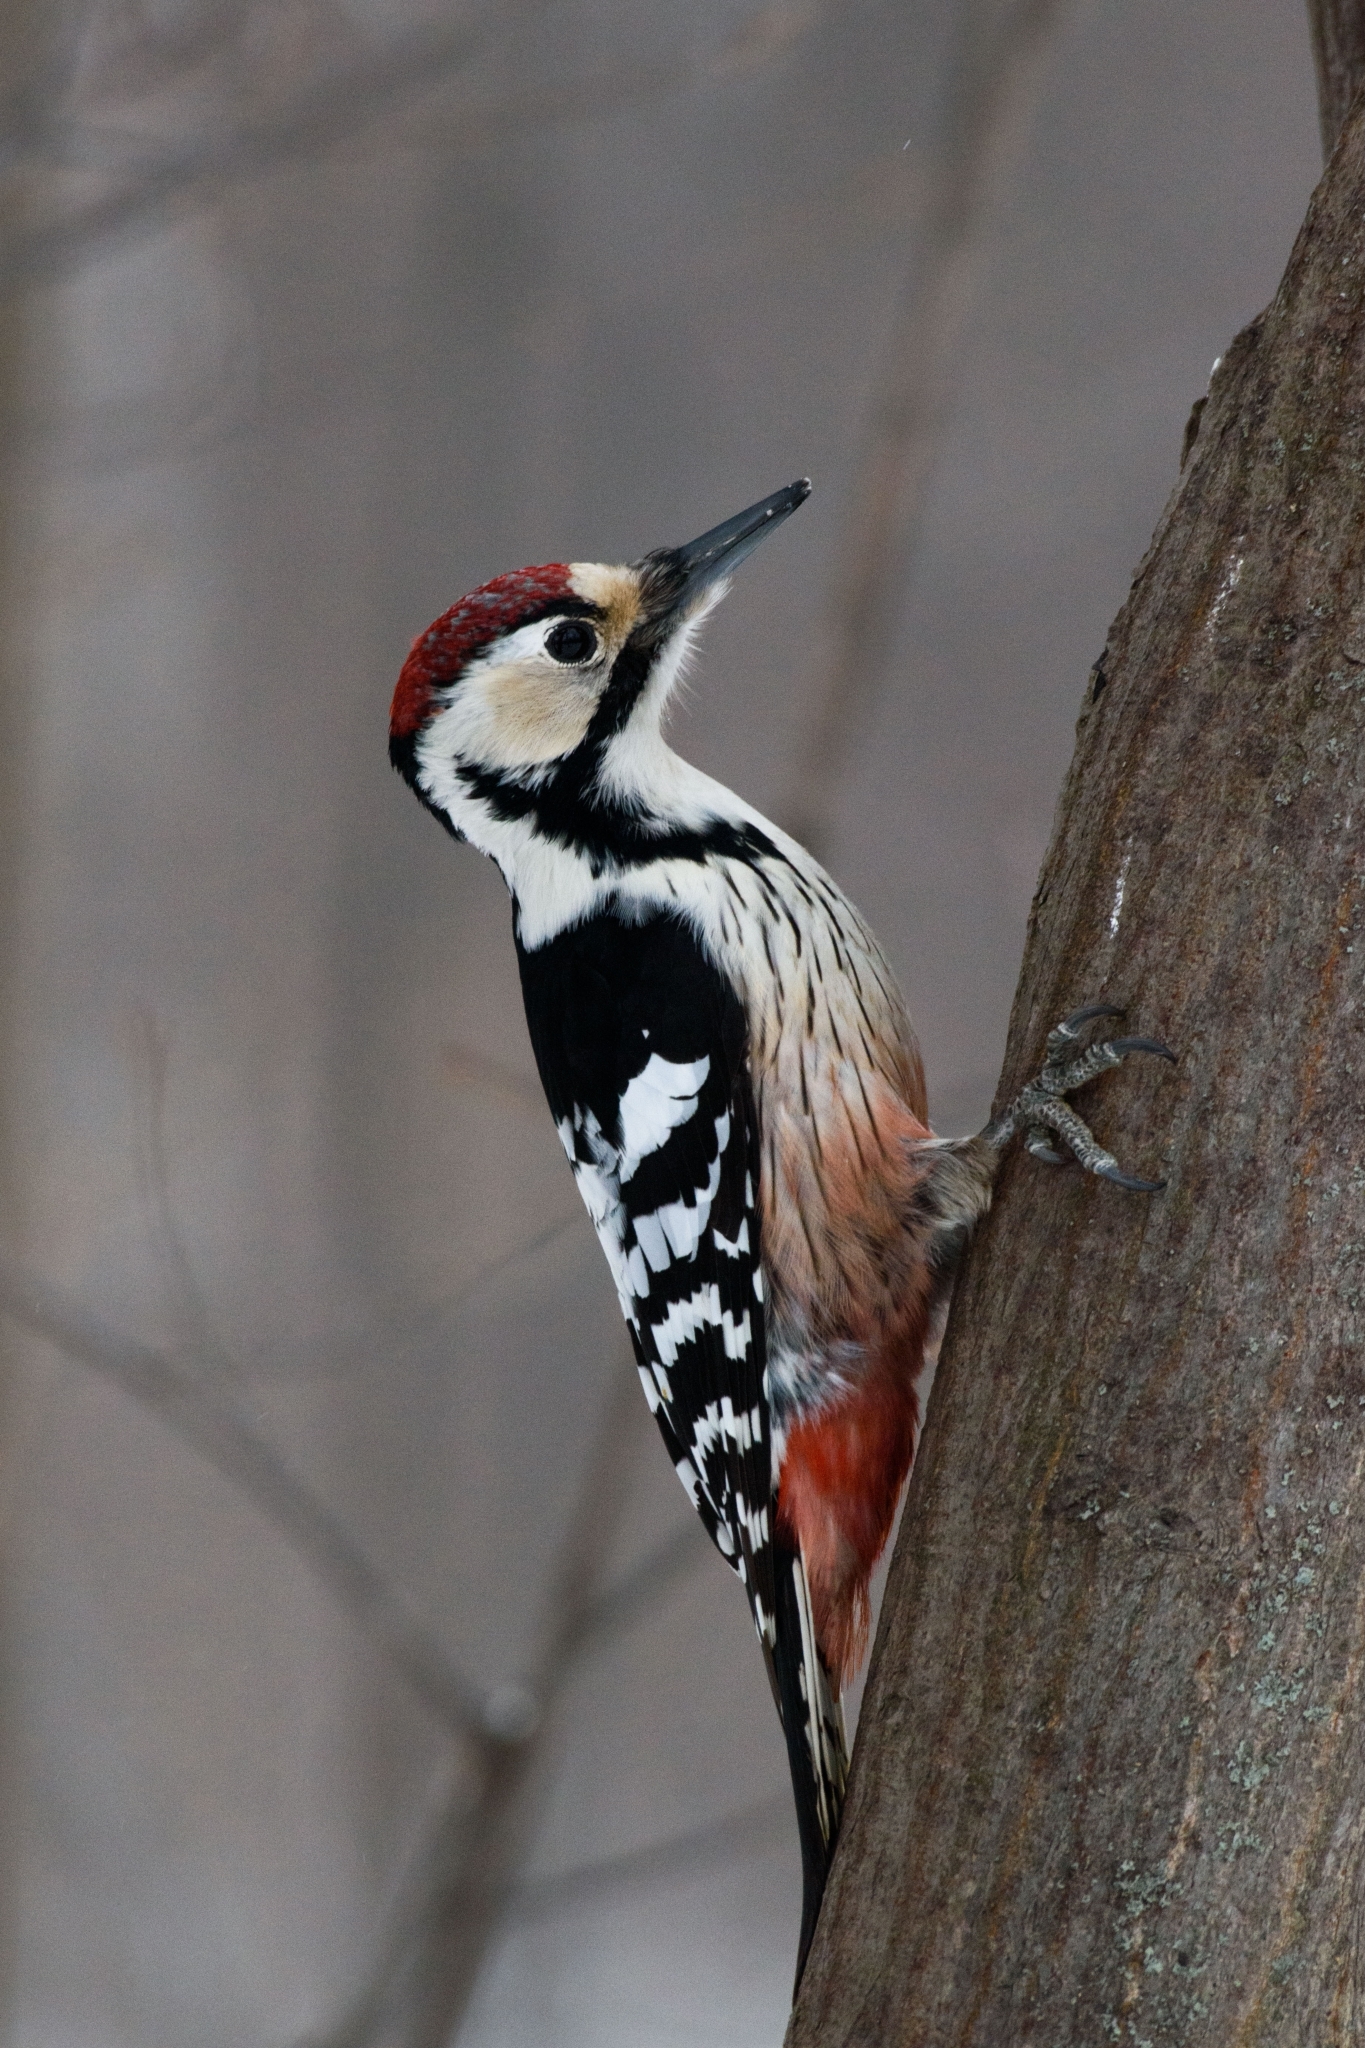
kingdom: Animalia
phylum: Chordata
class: Aves
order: Piciformes
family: Picidae
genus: Dendrocopos
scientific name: Dendrocopos leucotos
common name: White-backed woodpecker
